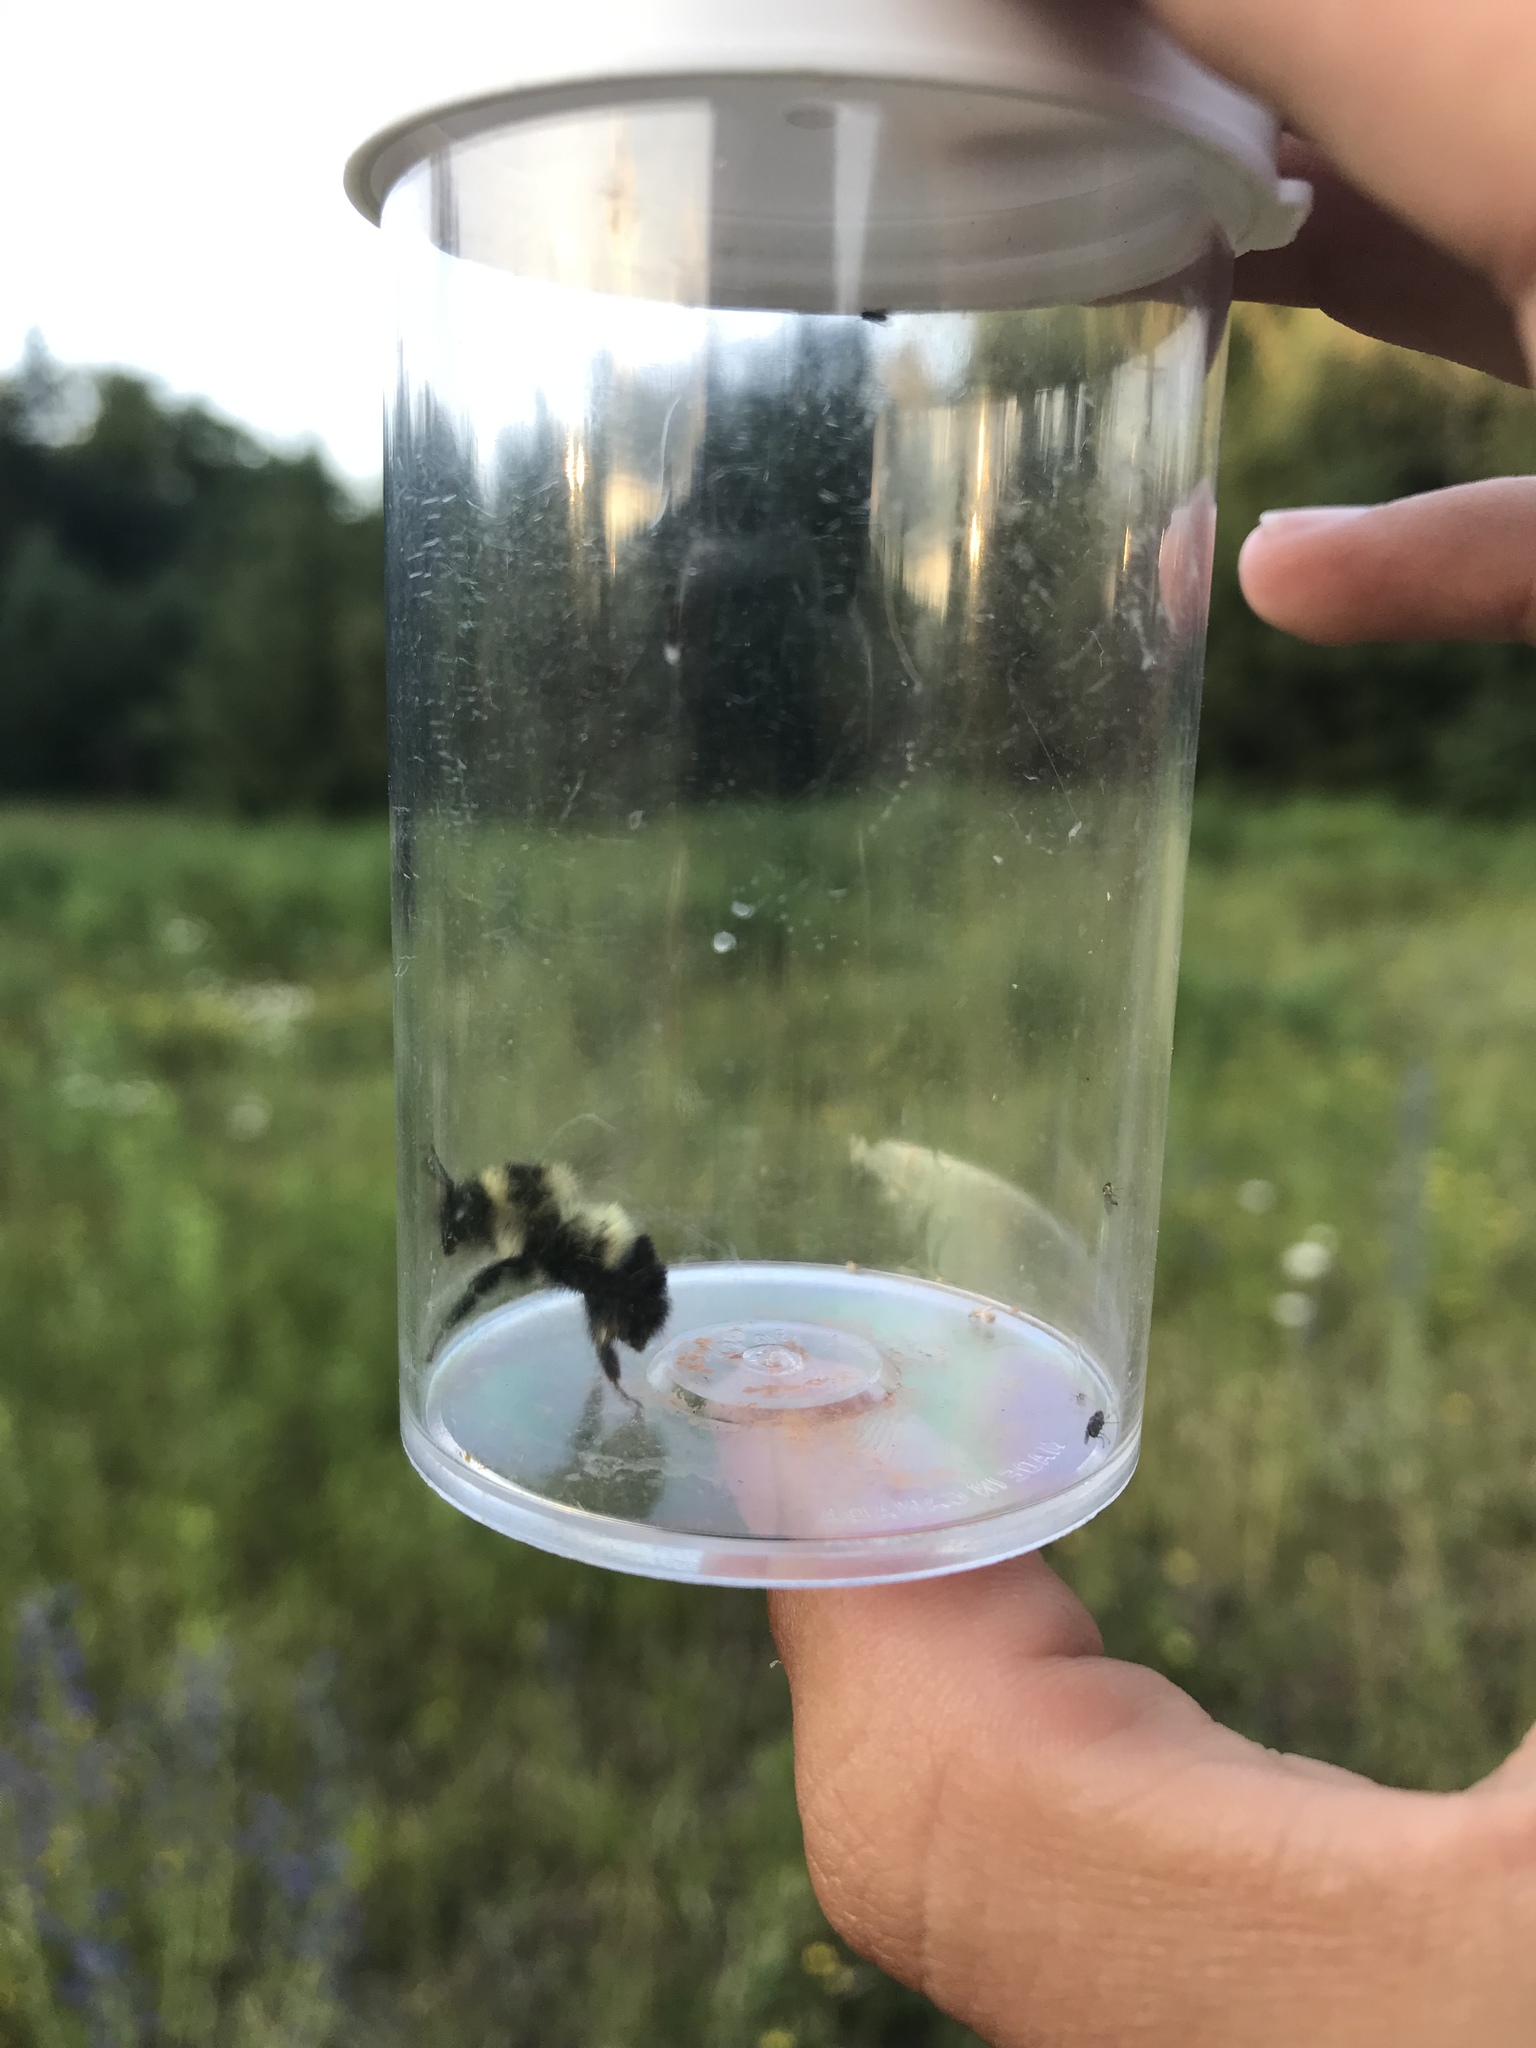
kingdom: Animalia
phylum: Arthropoda
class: Insecta
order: Hymenoptera
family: Apidae
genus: Pyrobombus
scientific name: Pyrobombus
